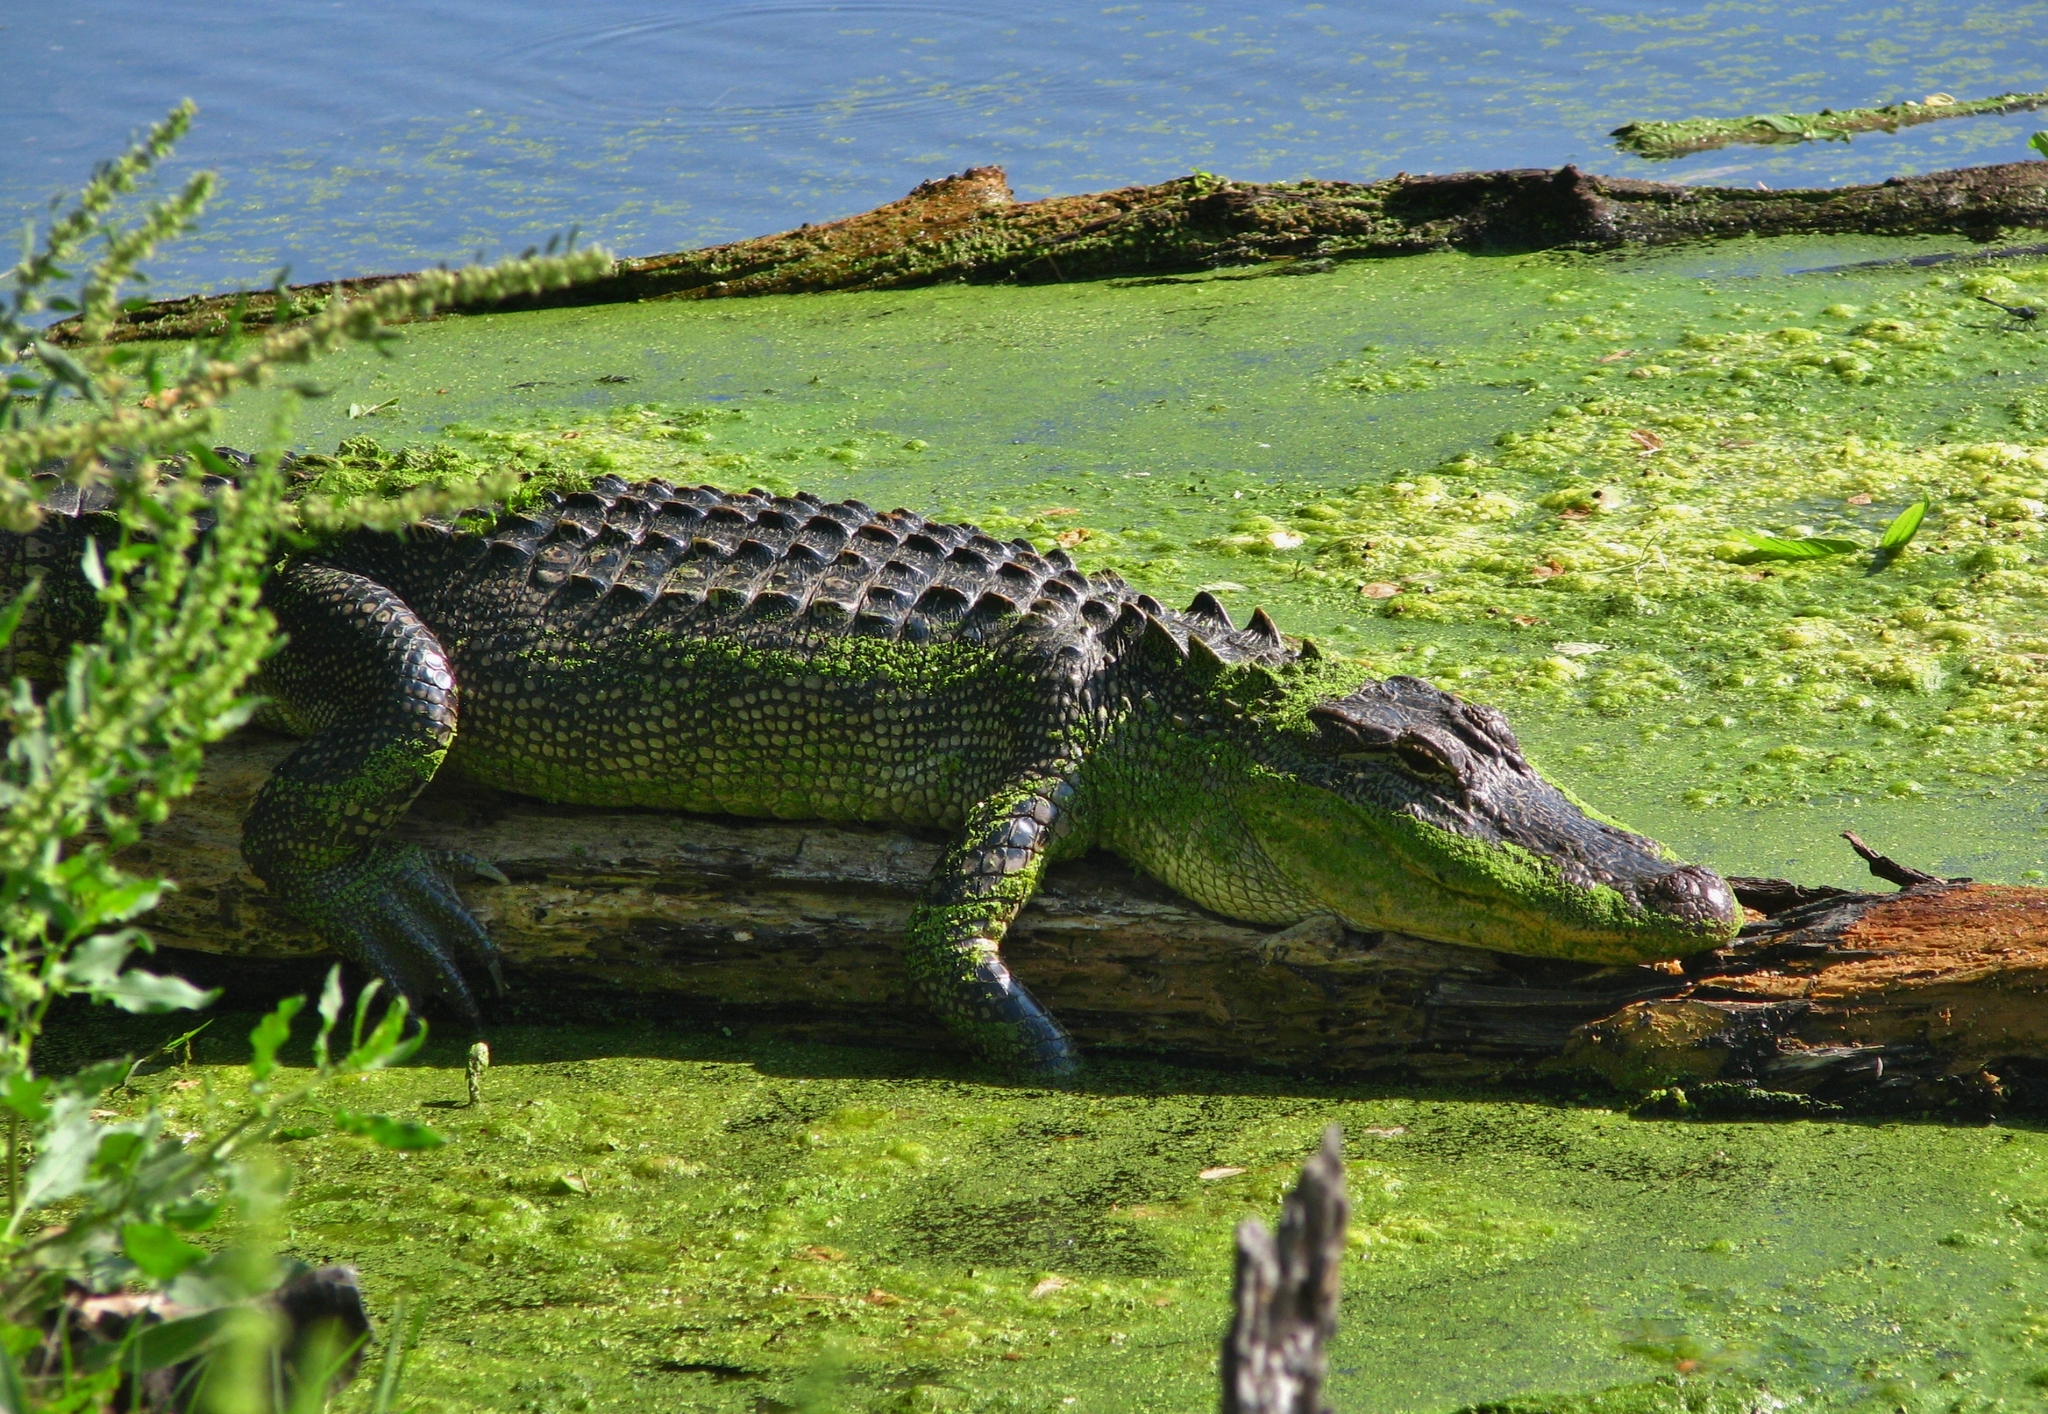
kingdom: Animalia
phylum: Chordata
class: Crocodylia
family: Alligatoridae
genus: Alligator
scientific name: Alligator mississippiensis
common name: American alligator
